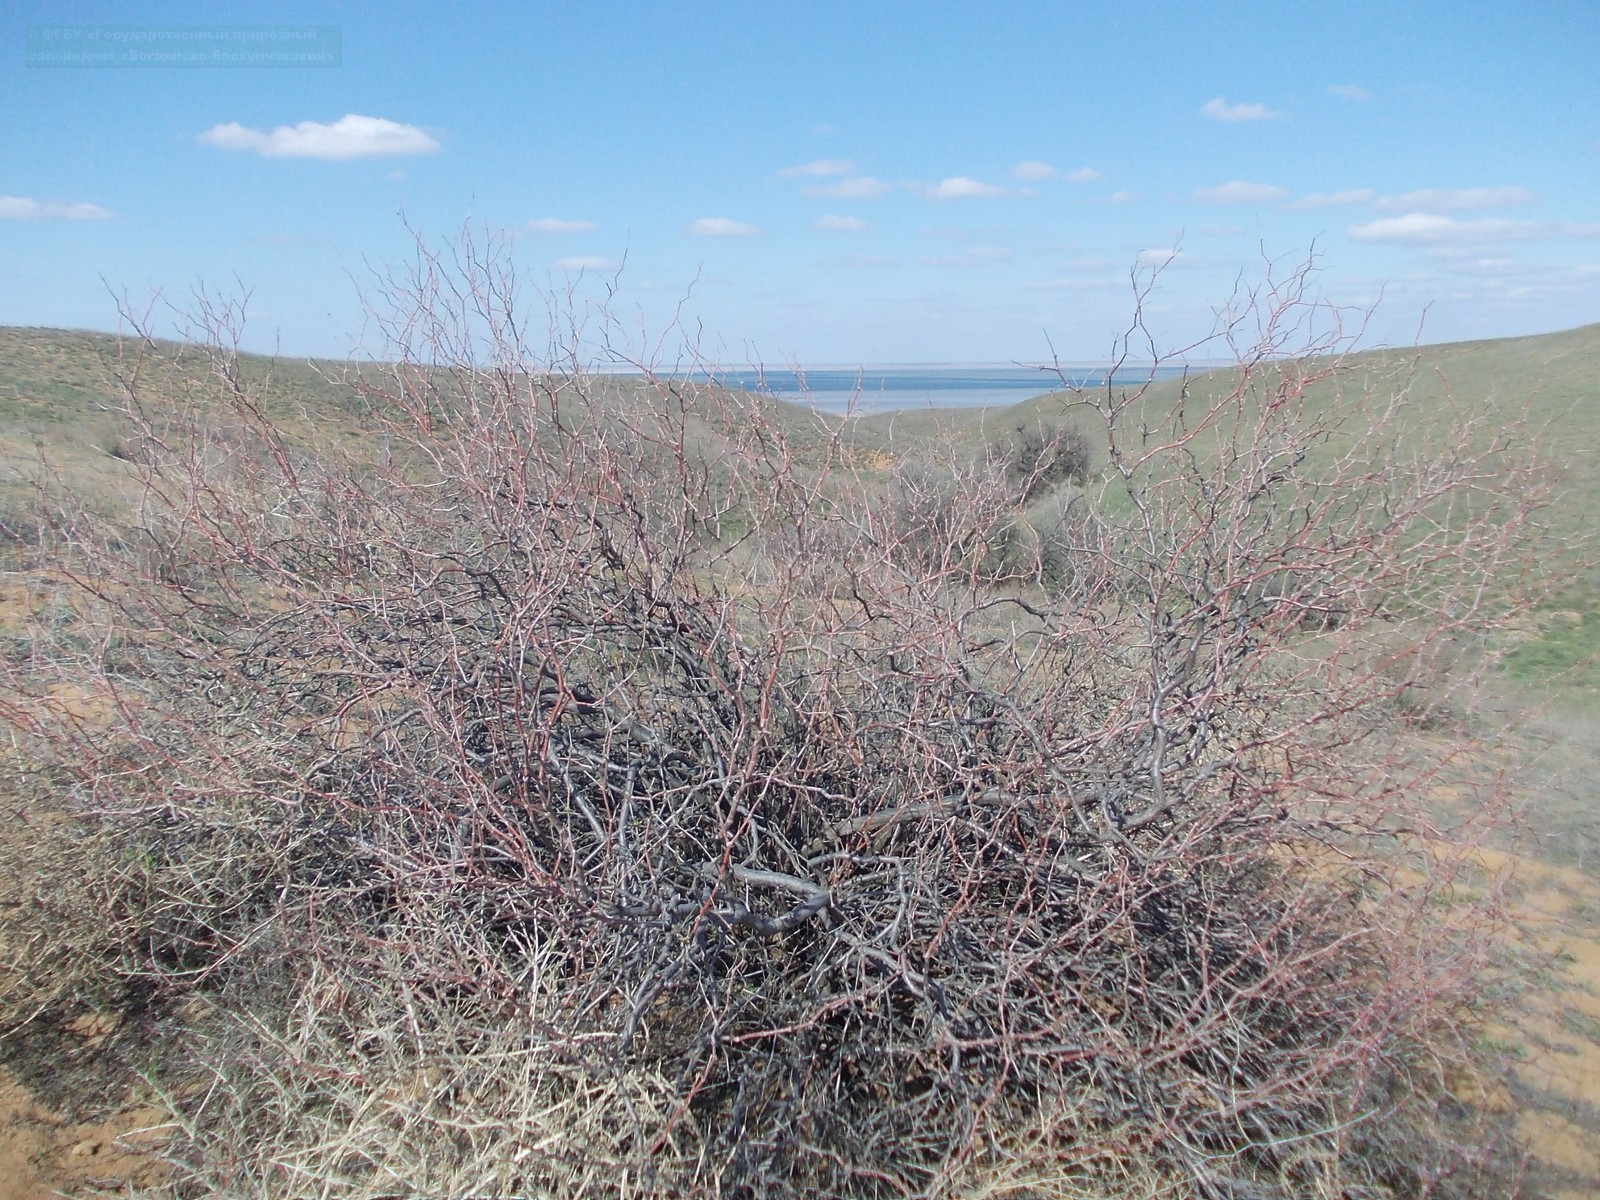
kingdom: Plantae
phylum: Tracheophyta
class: Magnoliopsida
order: Caryophyllales
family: Polygonaceae
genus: Calligonum
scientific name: Calligonum aphyllum
